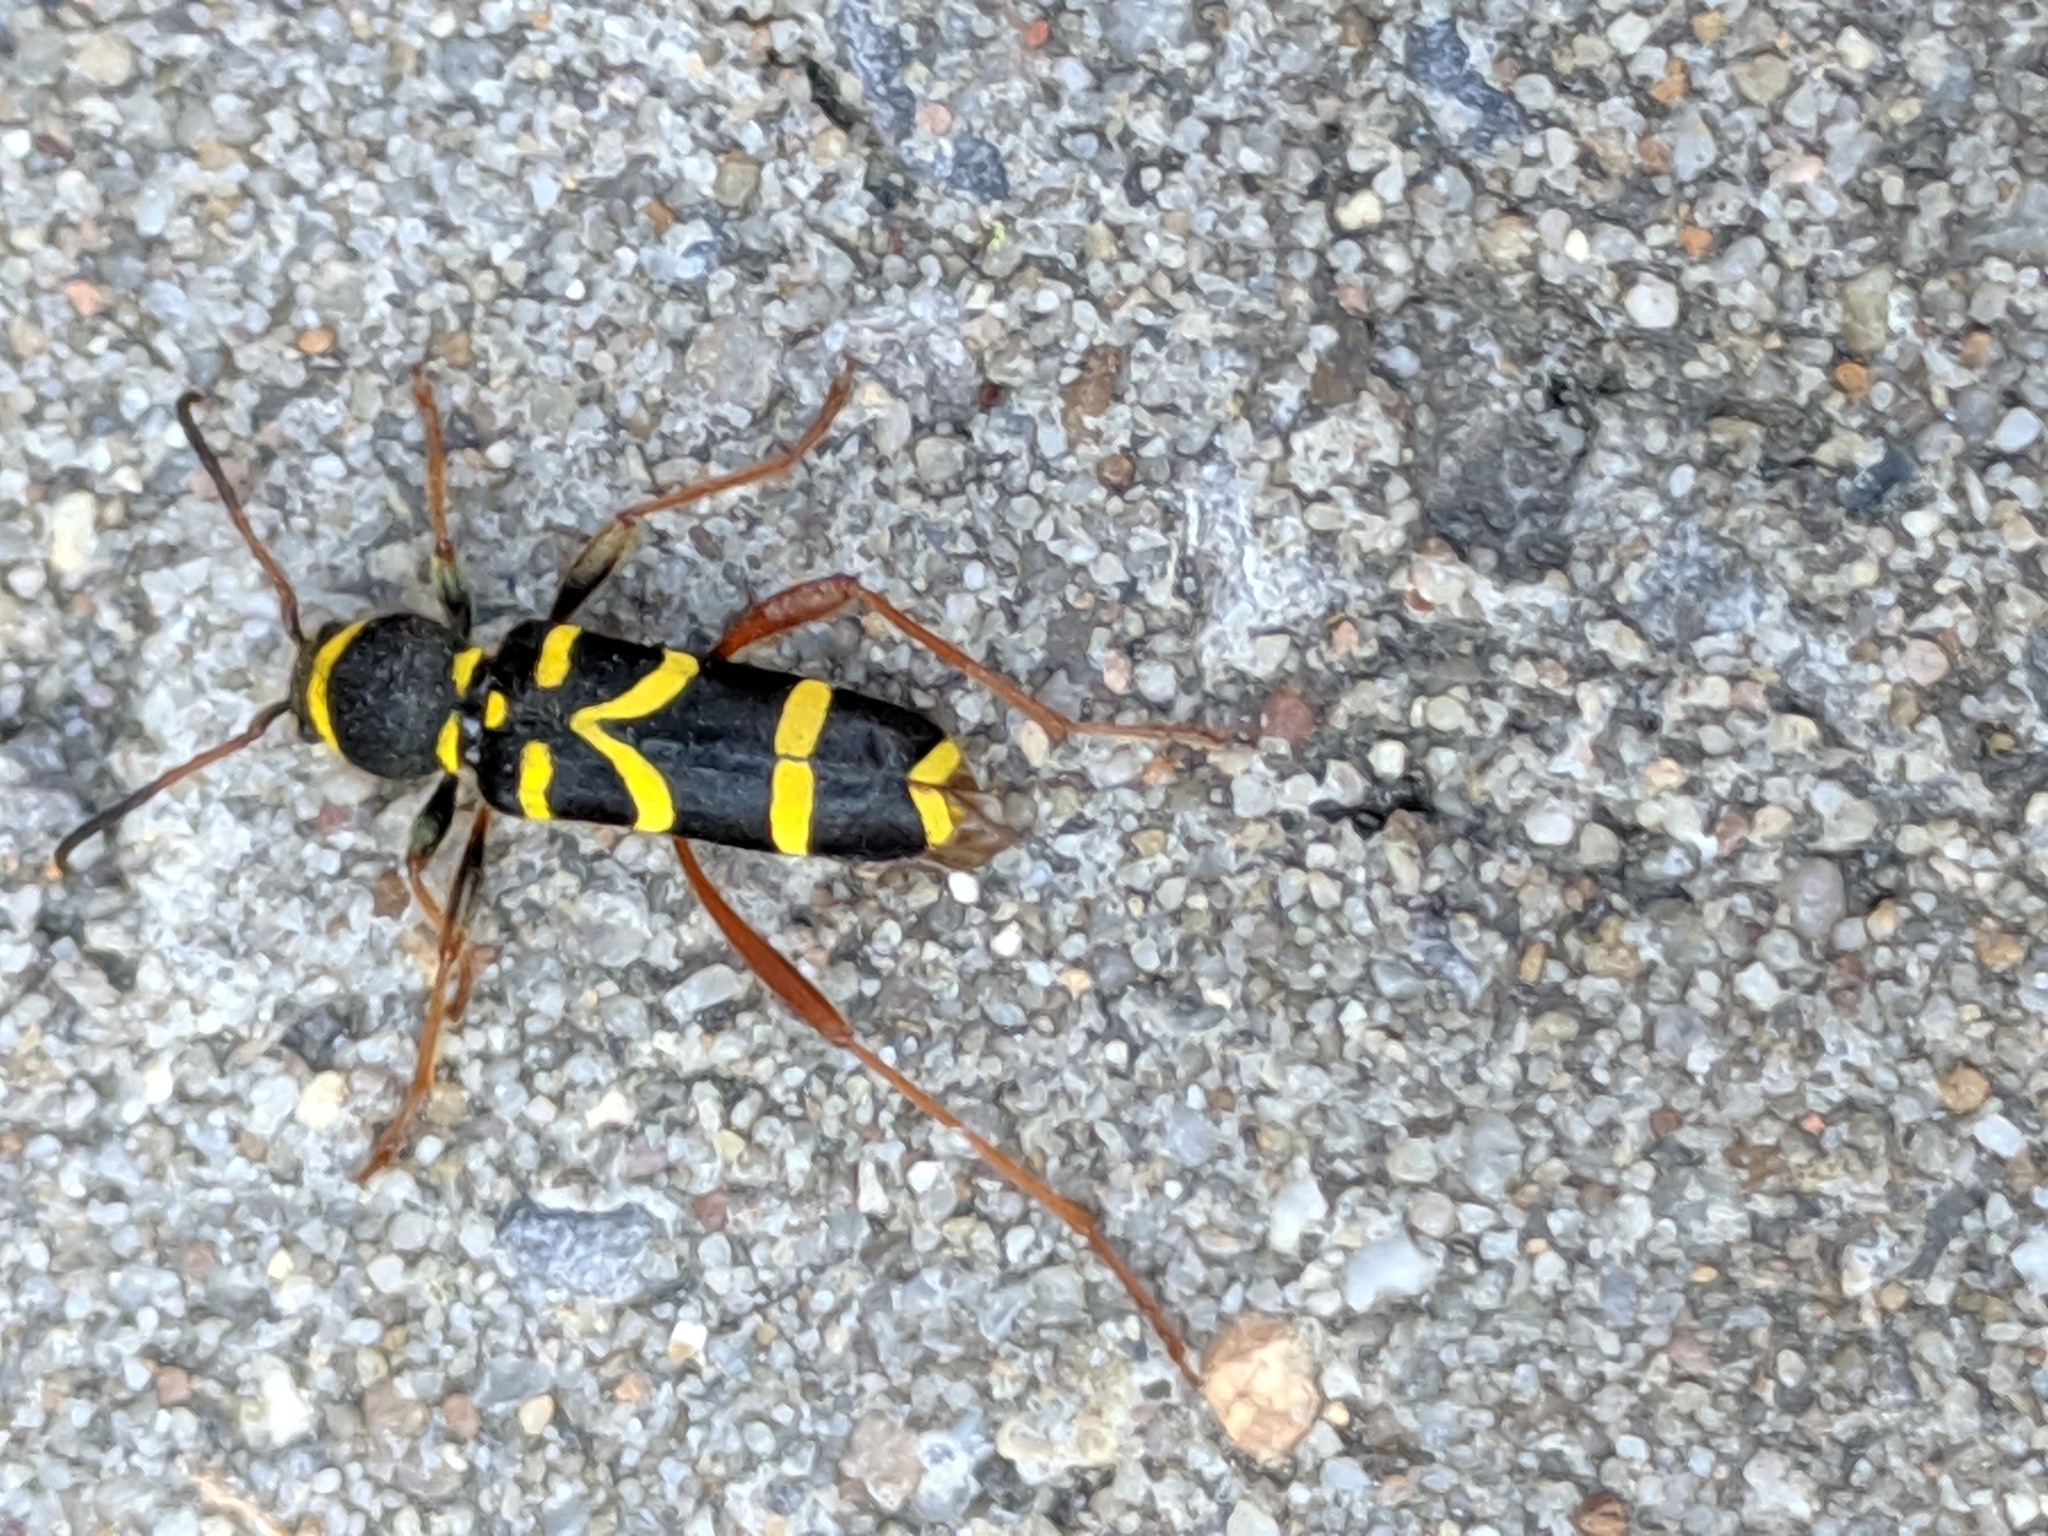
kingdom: Animalia
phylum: Arthropoda
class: Insecta
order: Coleoptera
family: Cerambycidae
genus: Clytus
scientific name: Clytus arietis
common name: Wasp beetle
